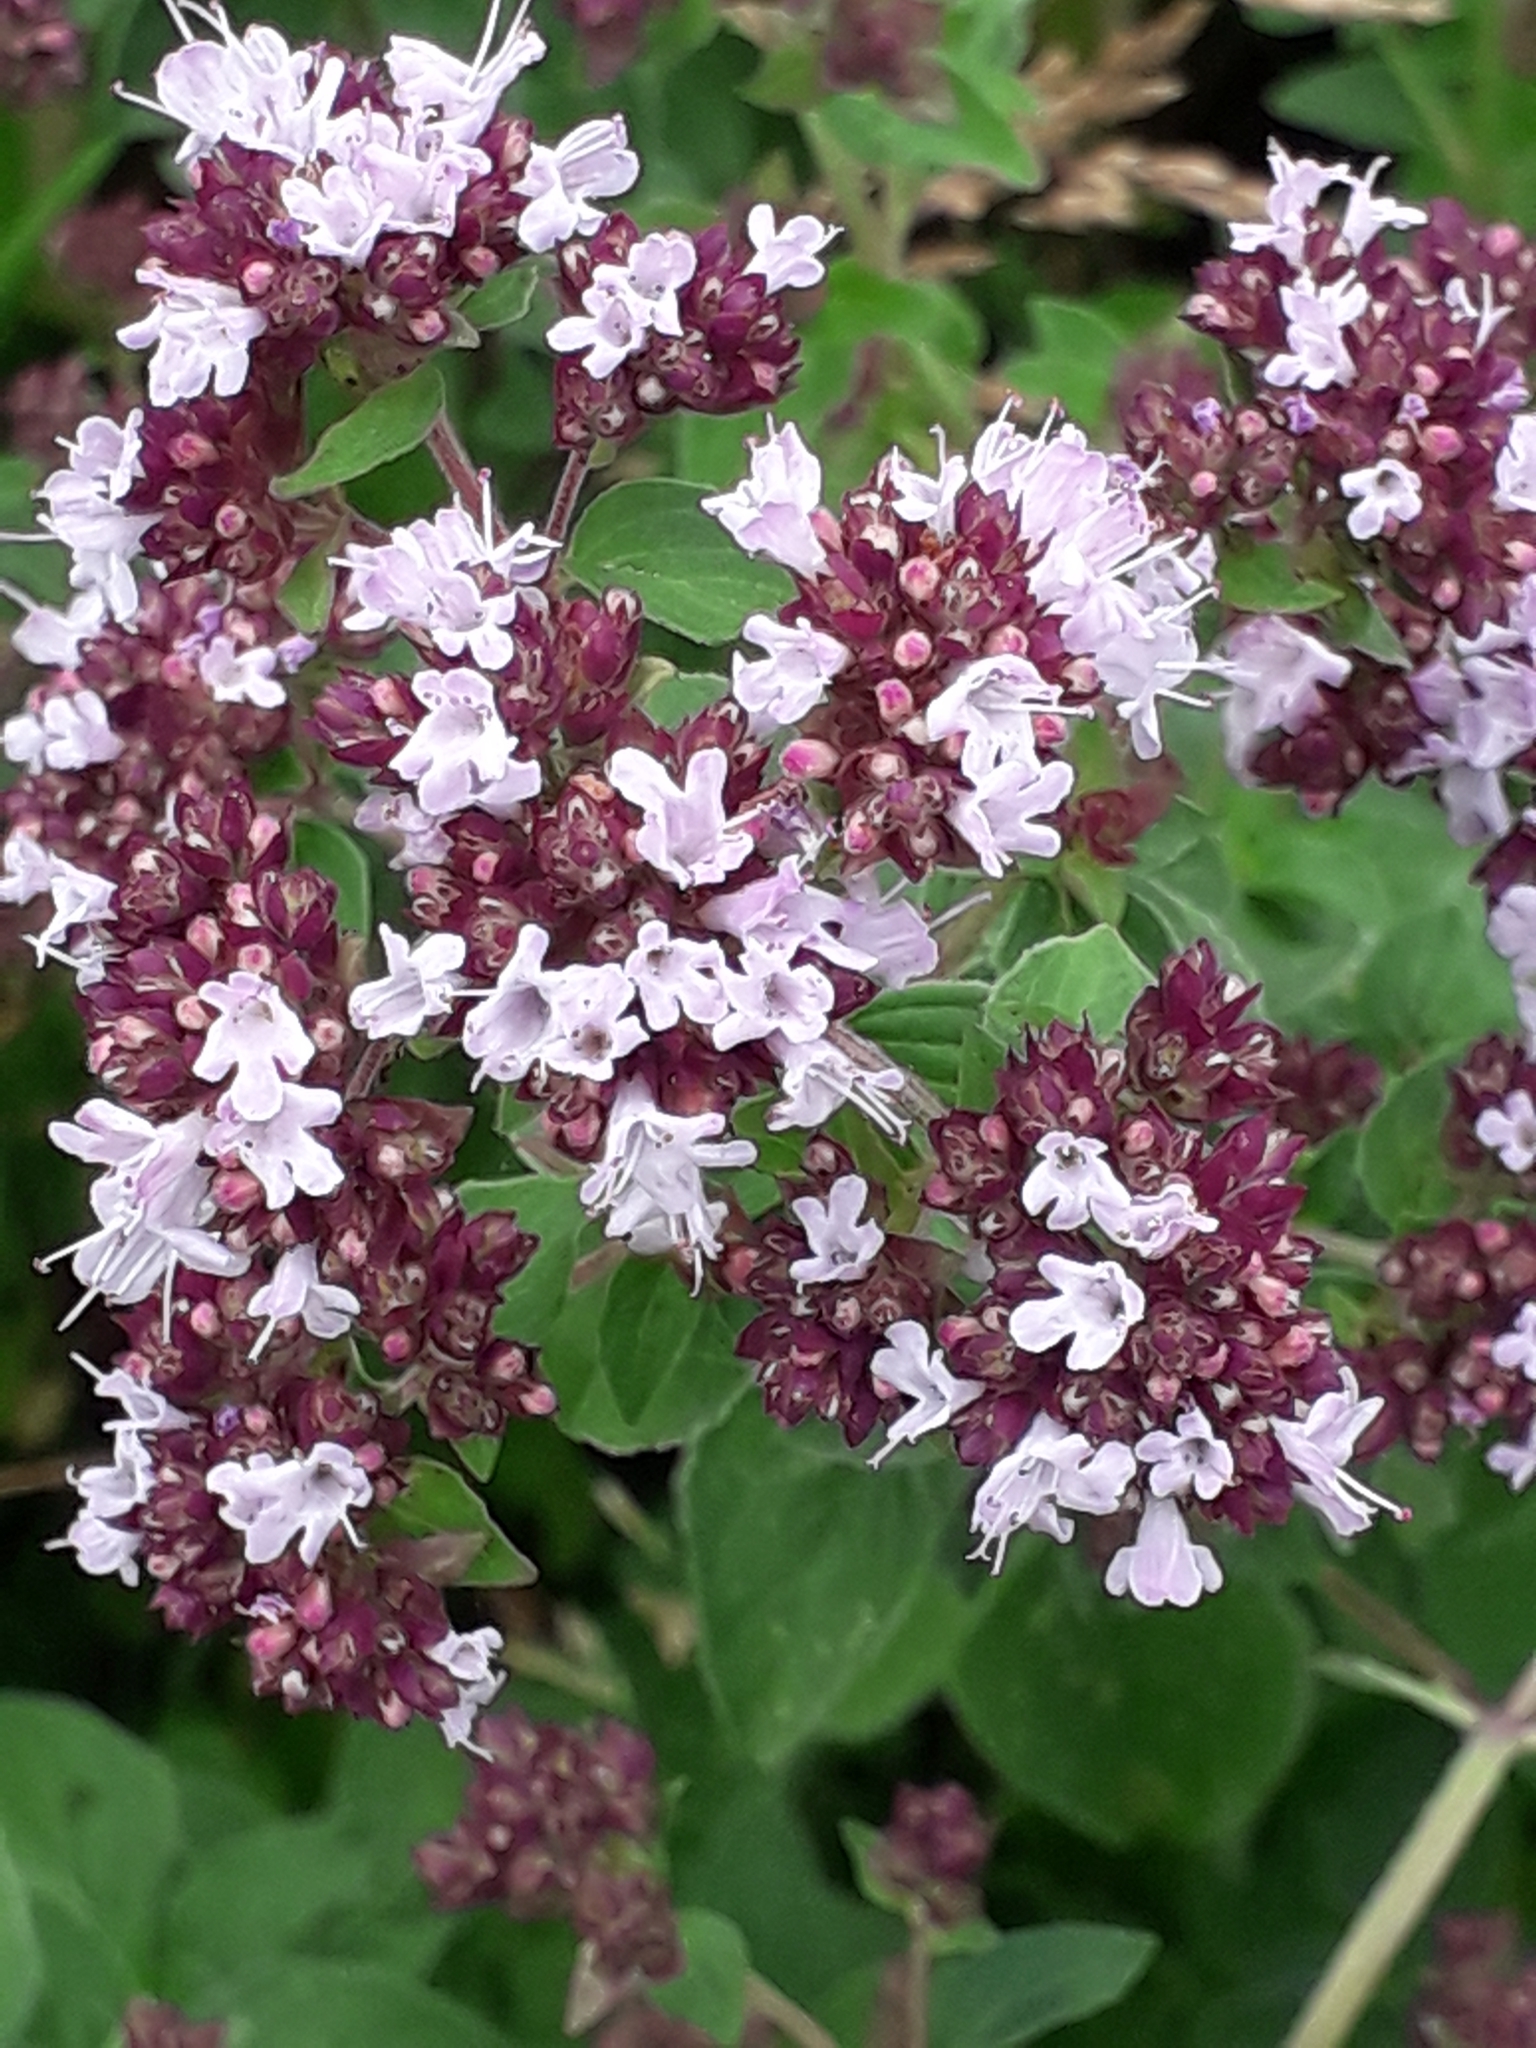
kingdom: Plantae
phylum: Tracheophyta
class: Magnoliopsida
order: Lamiales
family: Lamiaceae
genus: Origanum
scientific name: Origanum vulgare
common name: Wild marjoram
